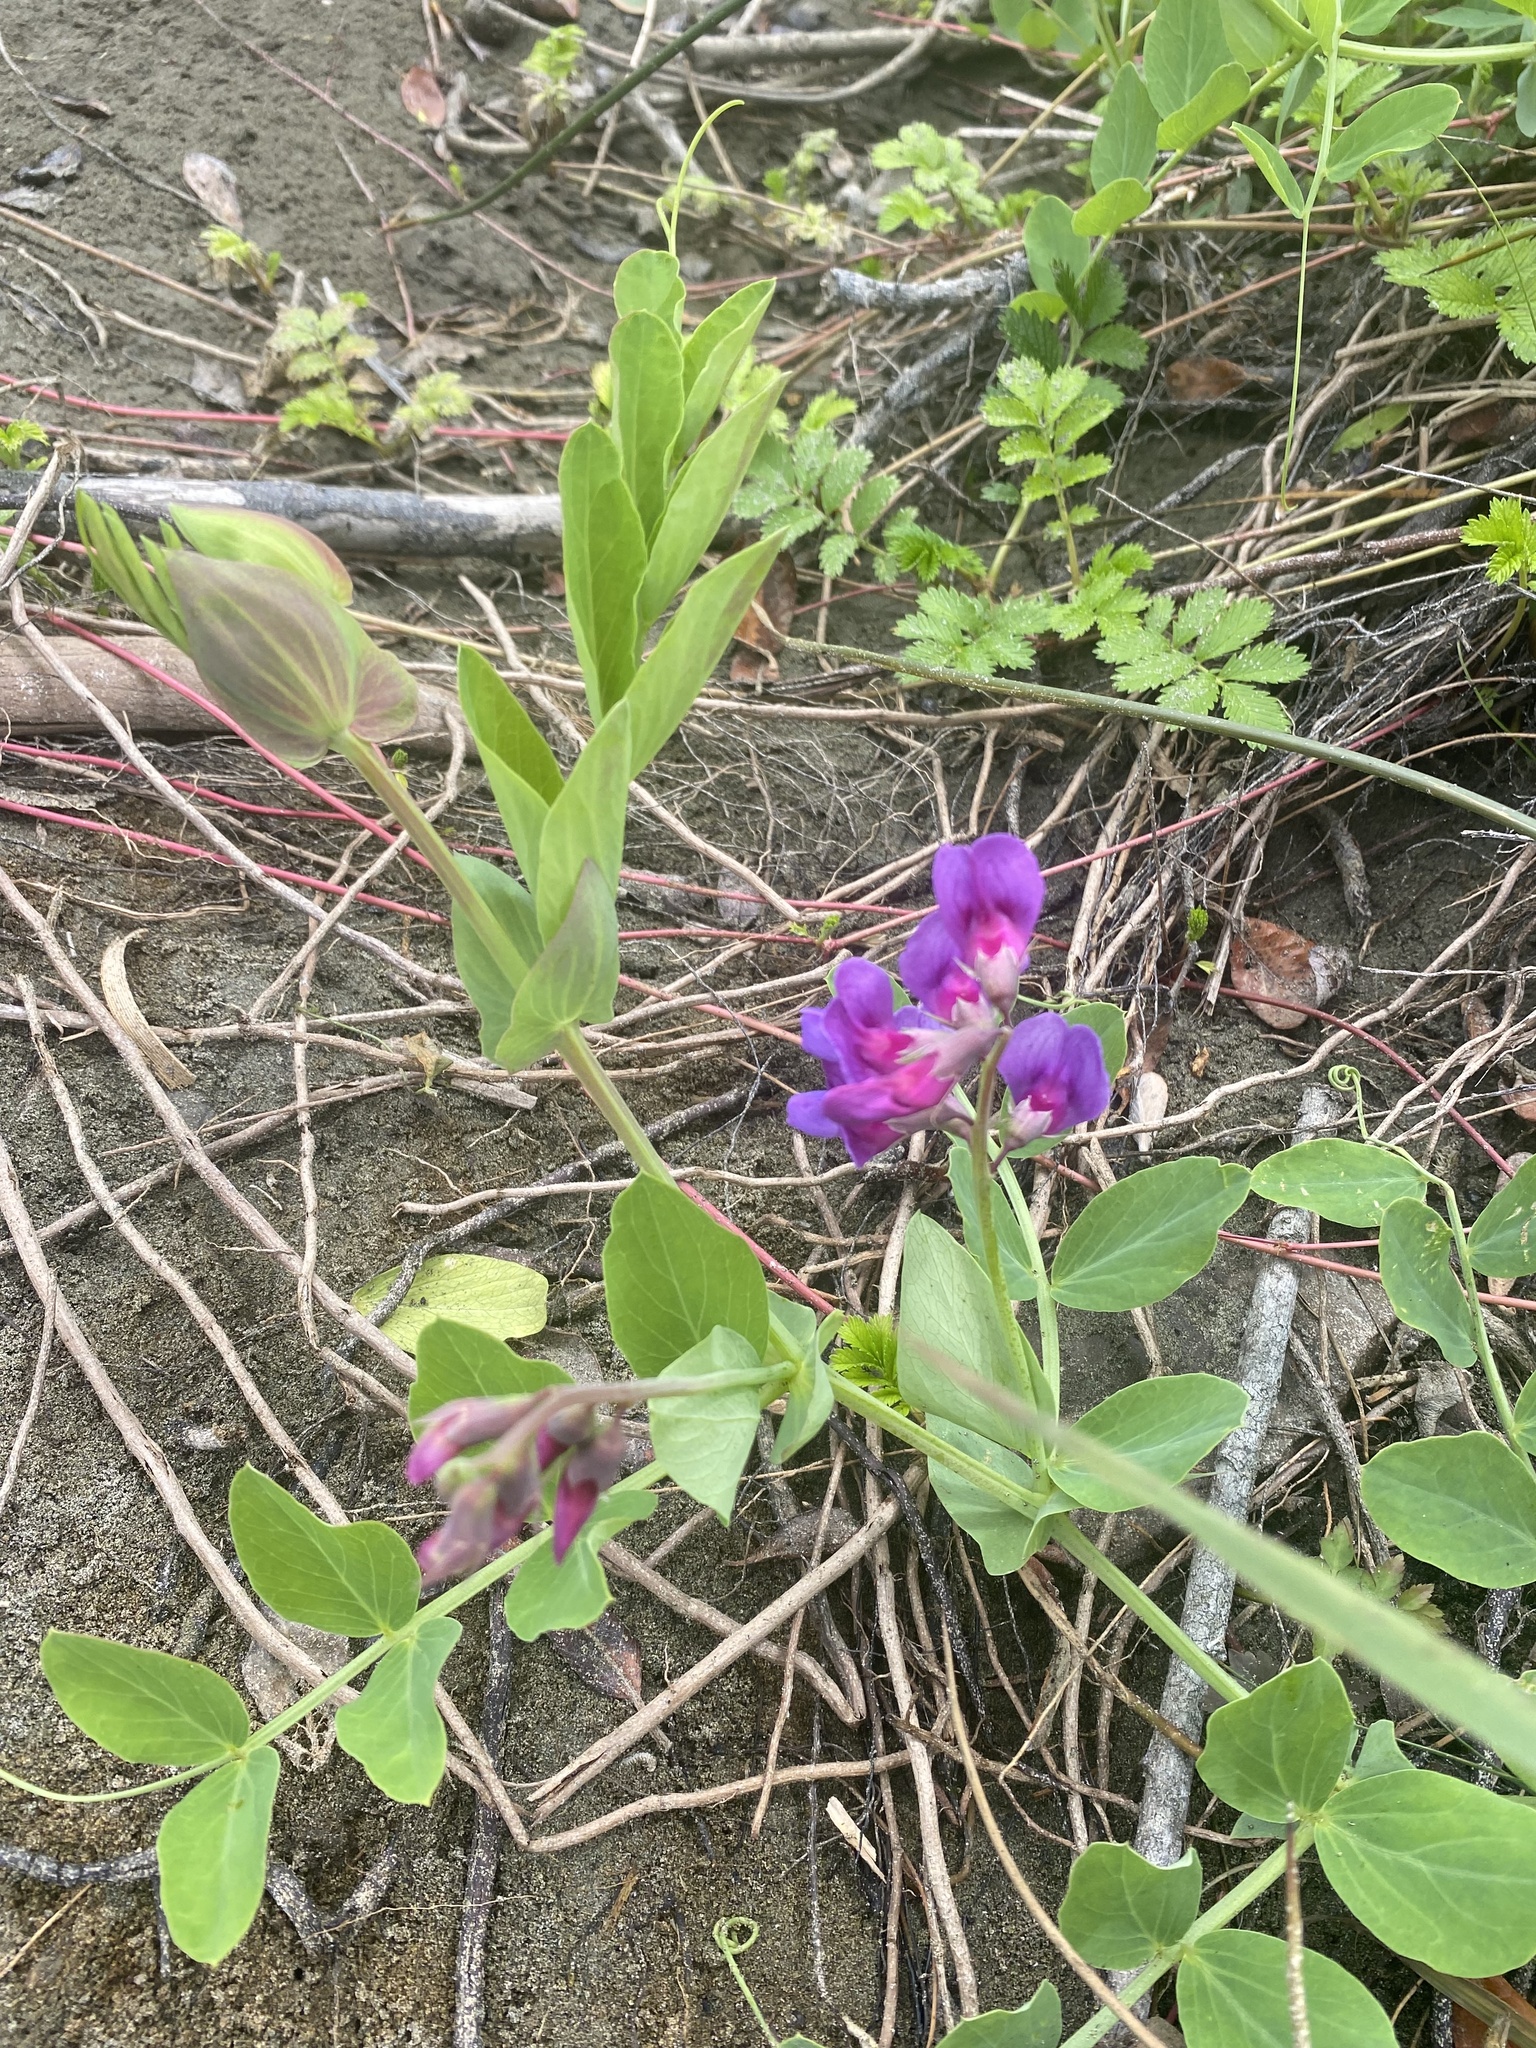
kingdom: Plantae
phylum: Tracheophyta
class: Magnoliopsida
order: Fabales
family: Fabaceae
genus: Lathyrus
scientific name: Lathyrus japonicus
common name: Sea pea
